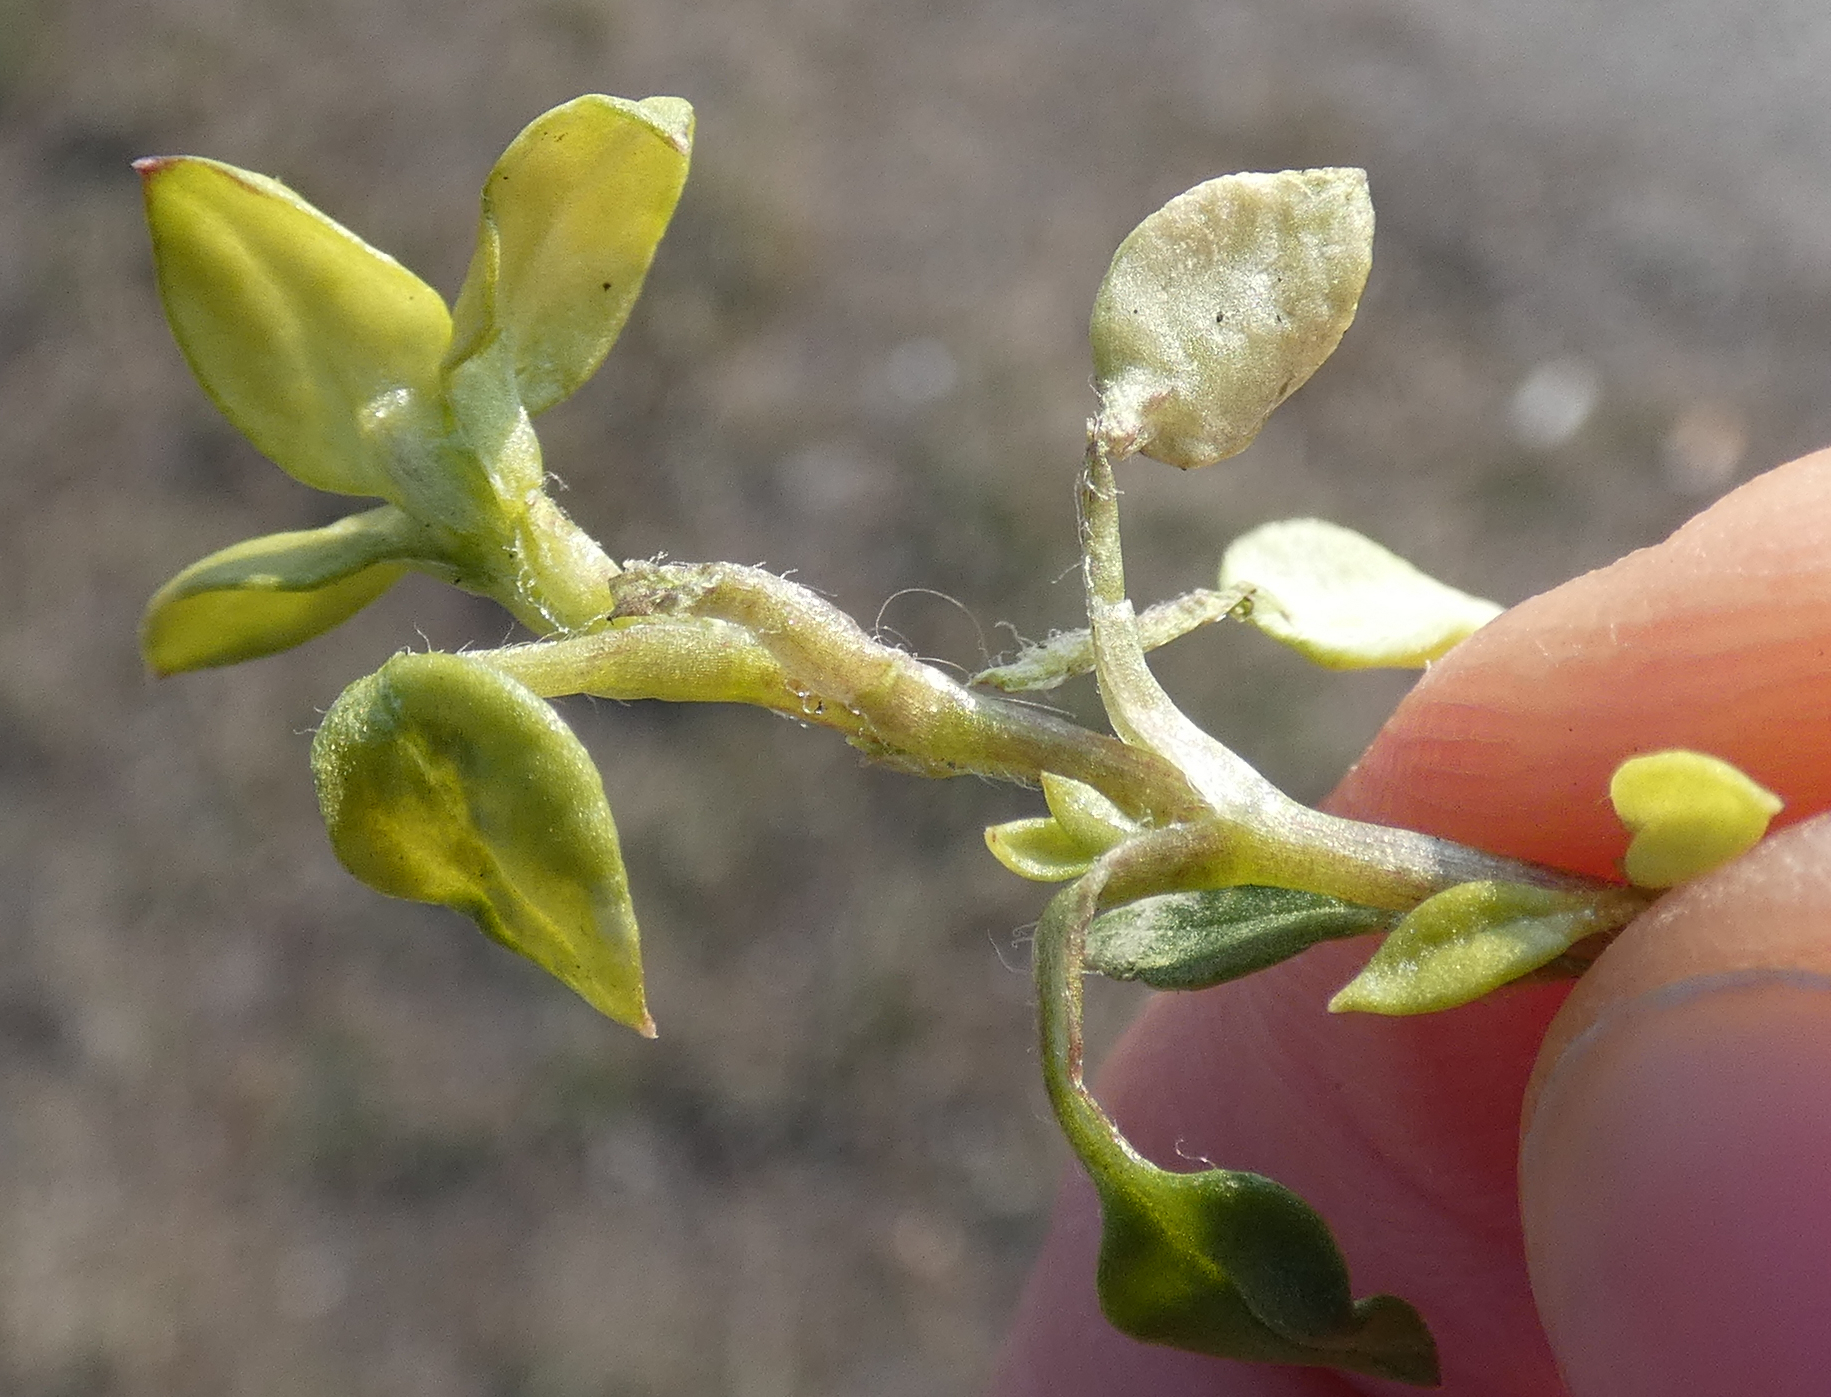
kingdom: Chromista
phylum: Oomycota
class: Peronosporea
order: Peronosporales
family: Peronosporaceae
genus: Peronospora
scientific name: Peronospora alsinearum
